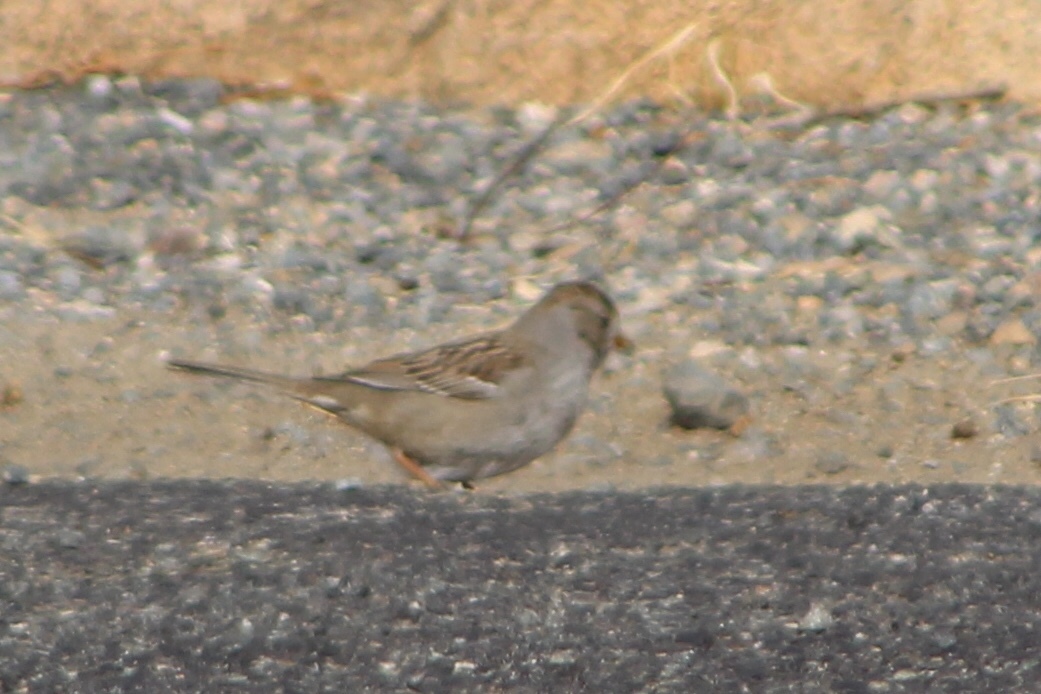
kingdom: Animalia
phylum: Chordata
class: Aves
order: Passeriformes
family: Passerellidae
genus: Zonotrichia
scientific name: Zonotrichia leucophrys
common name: White-crowned sparrow
